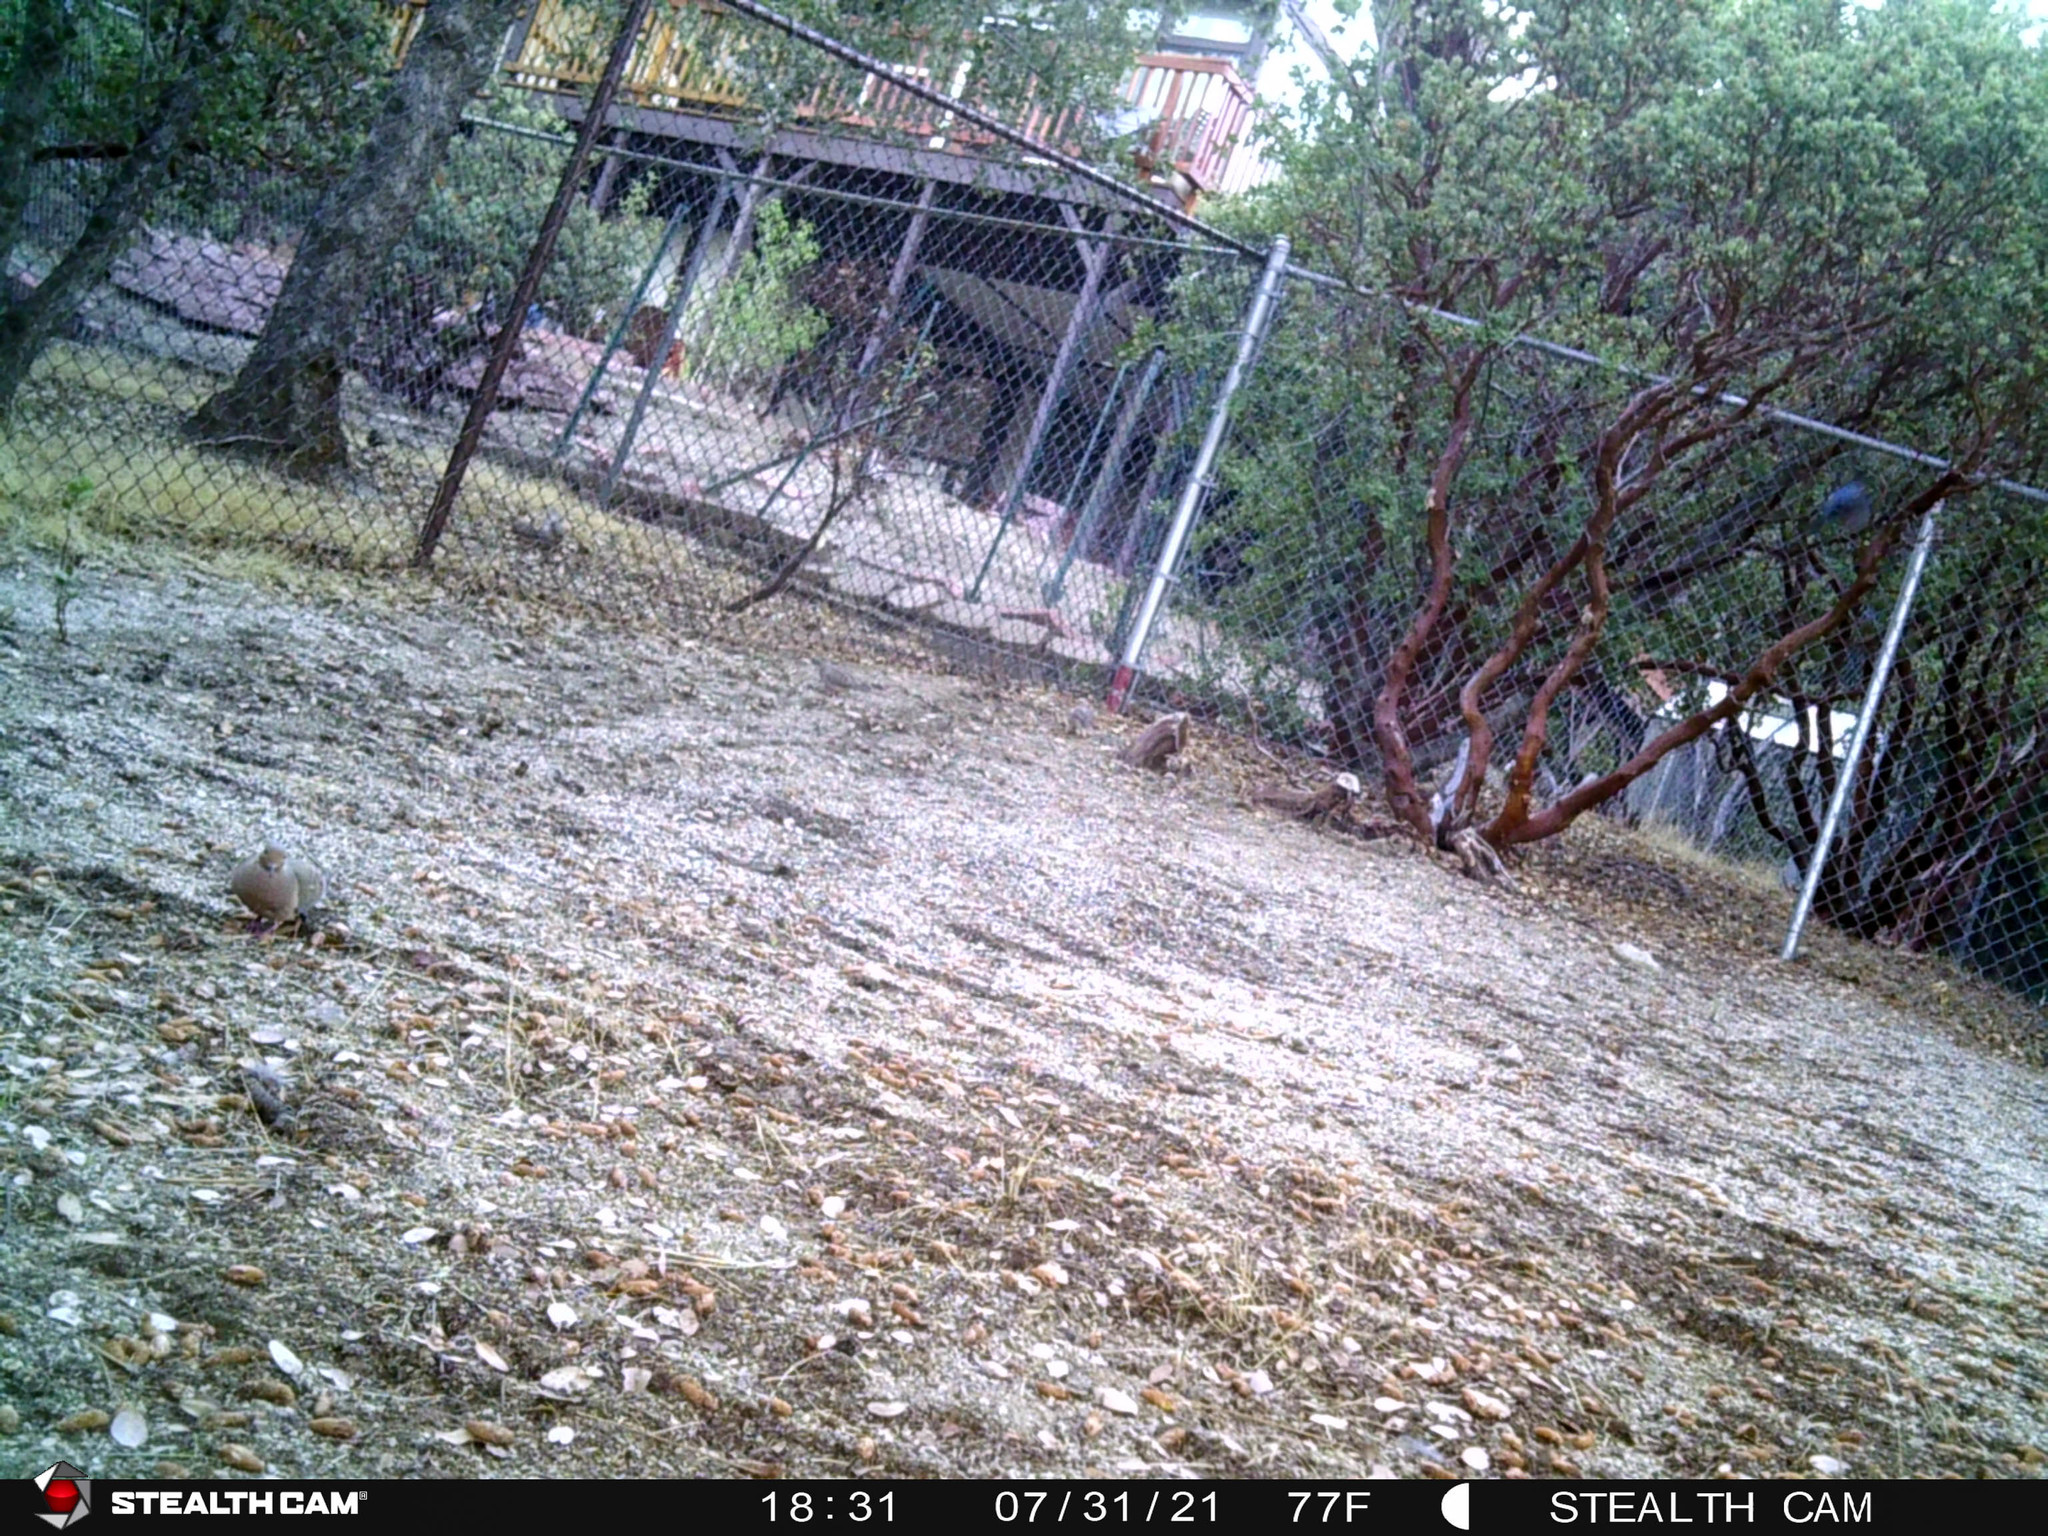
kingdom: Animalia
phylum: Chordata
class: Aves
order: Columbiformes
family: Columbidae
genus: Zenaida
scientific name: Zenaida macroura
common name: Mourning dove
